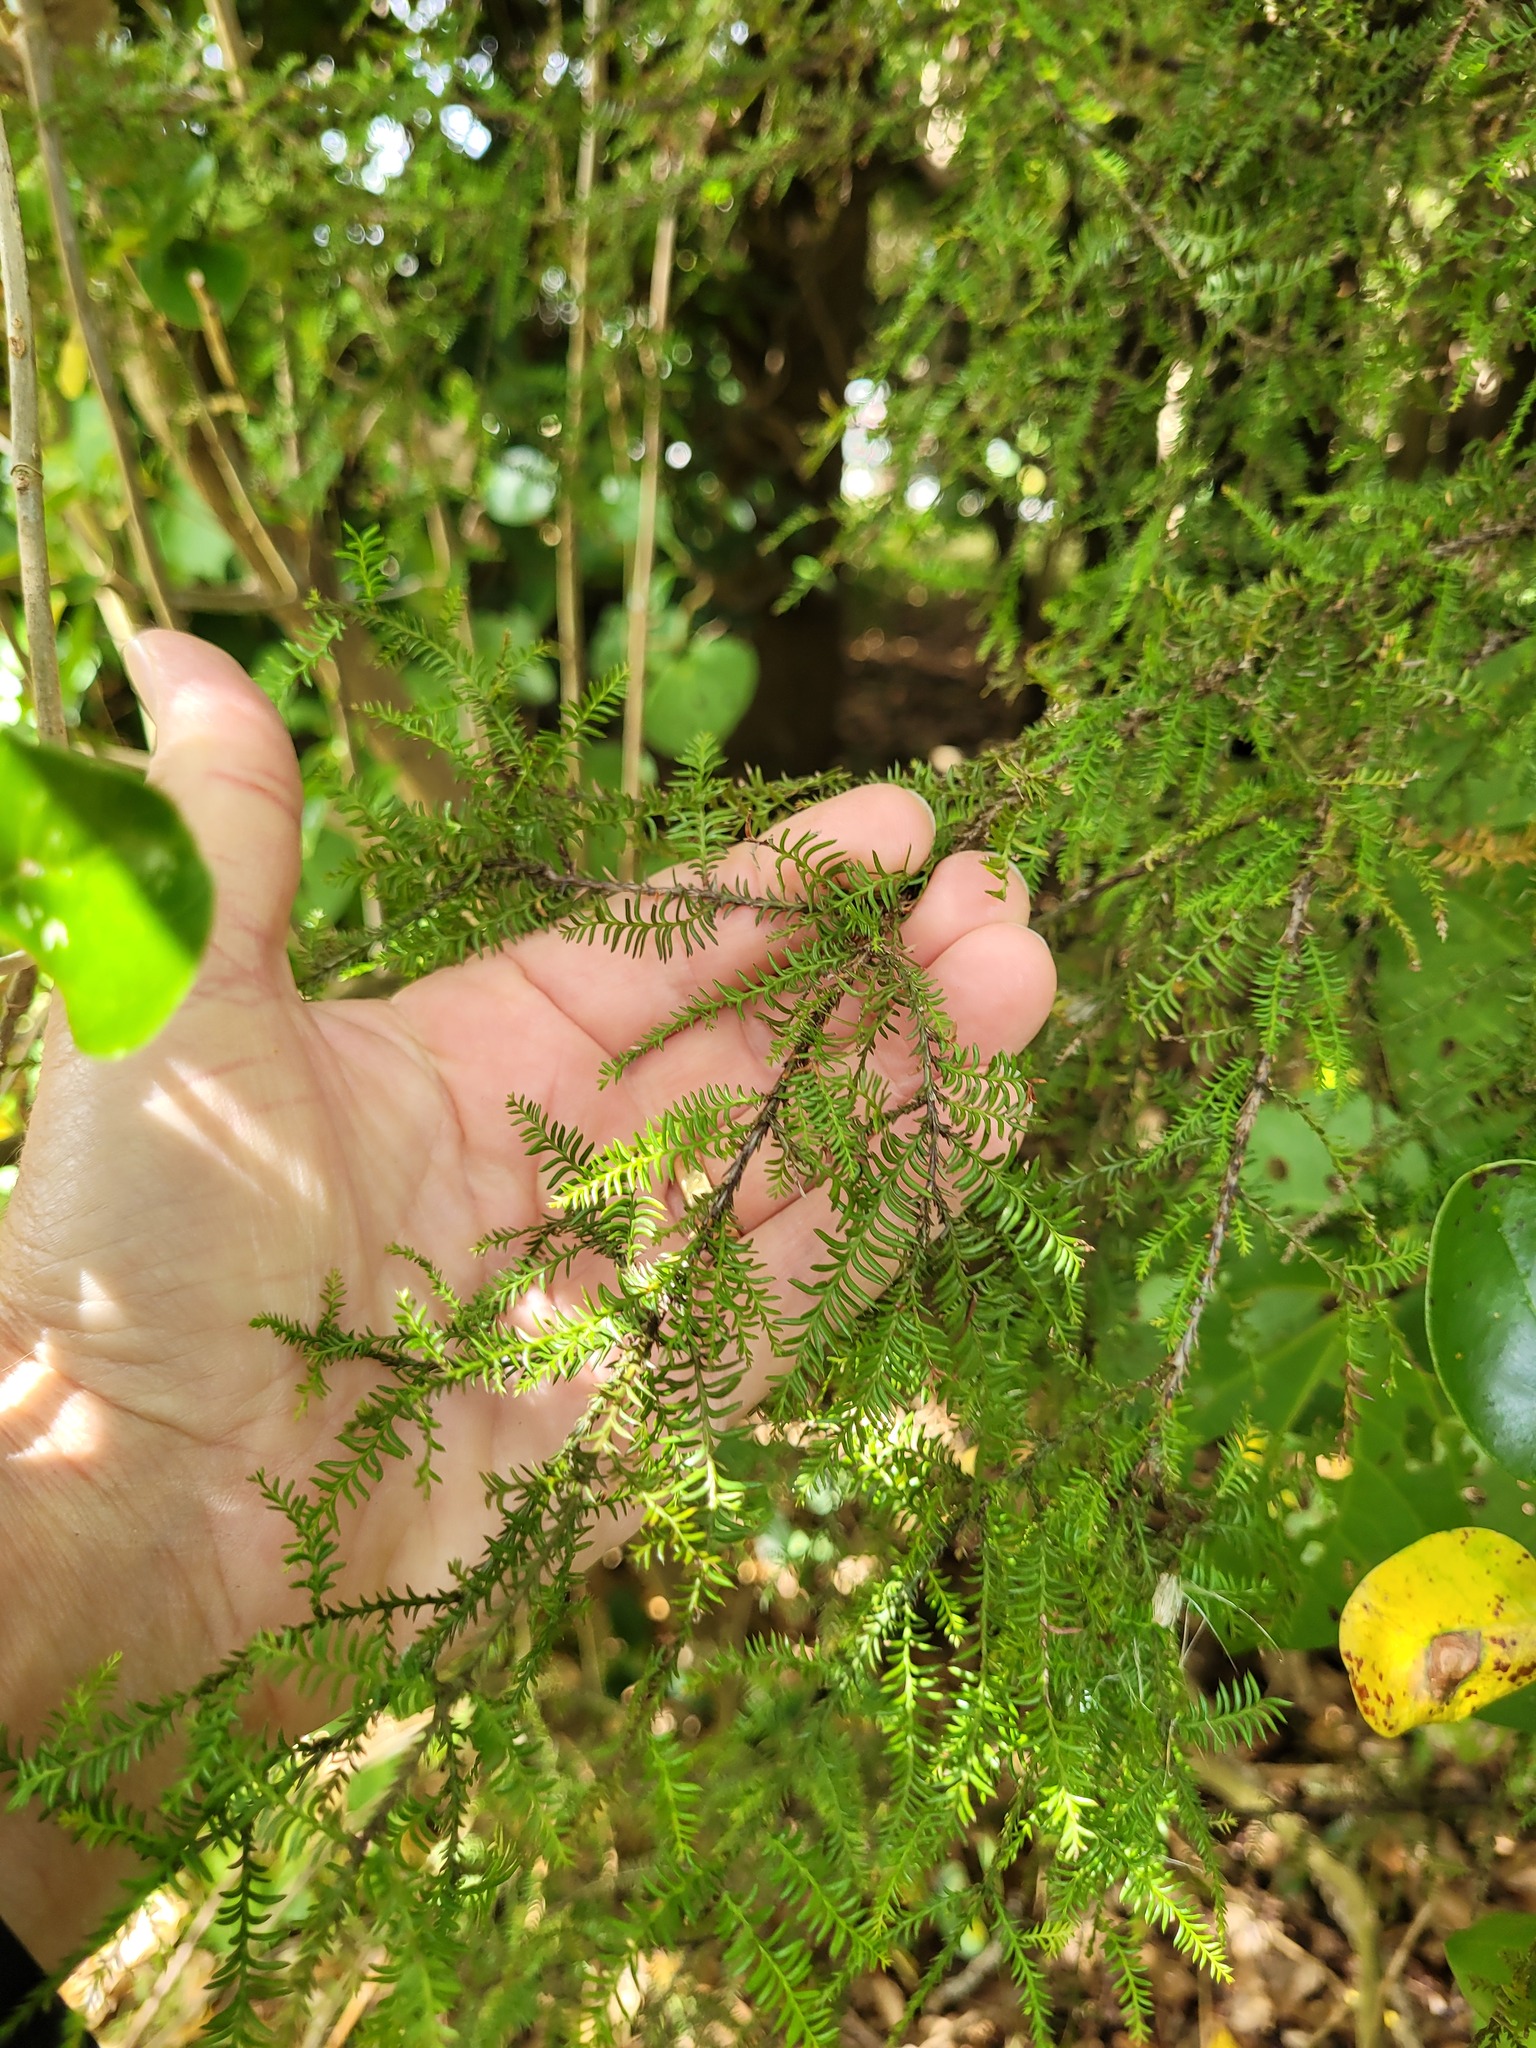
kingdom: Plantae
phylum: Tracheophyta
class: Pinopsida
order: Pinales
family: Podocarpaceae
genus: Dacrycarpus
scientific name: Dacrycarpus dacrydioides
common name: White pine
